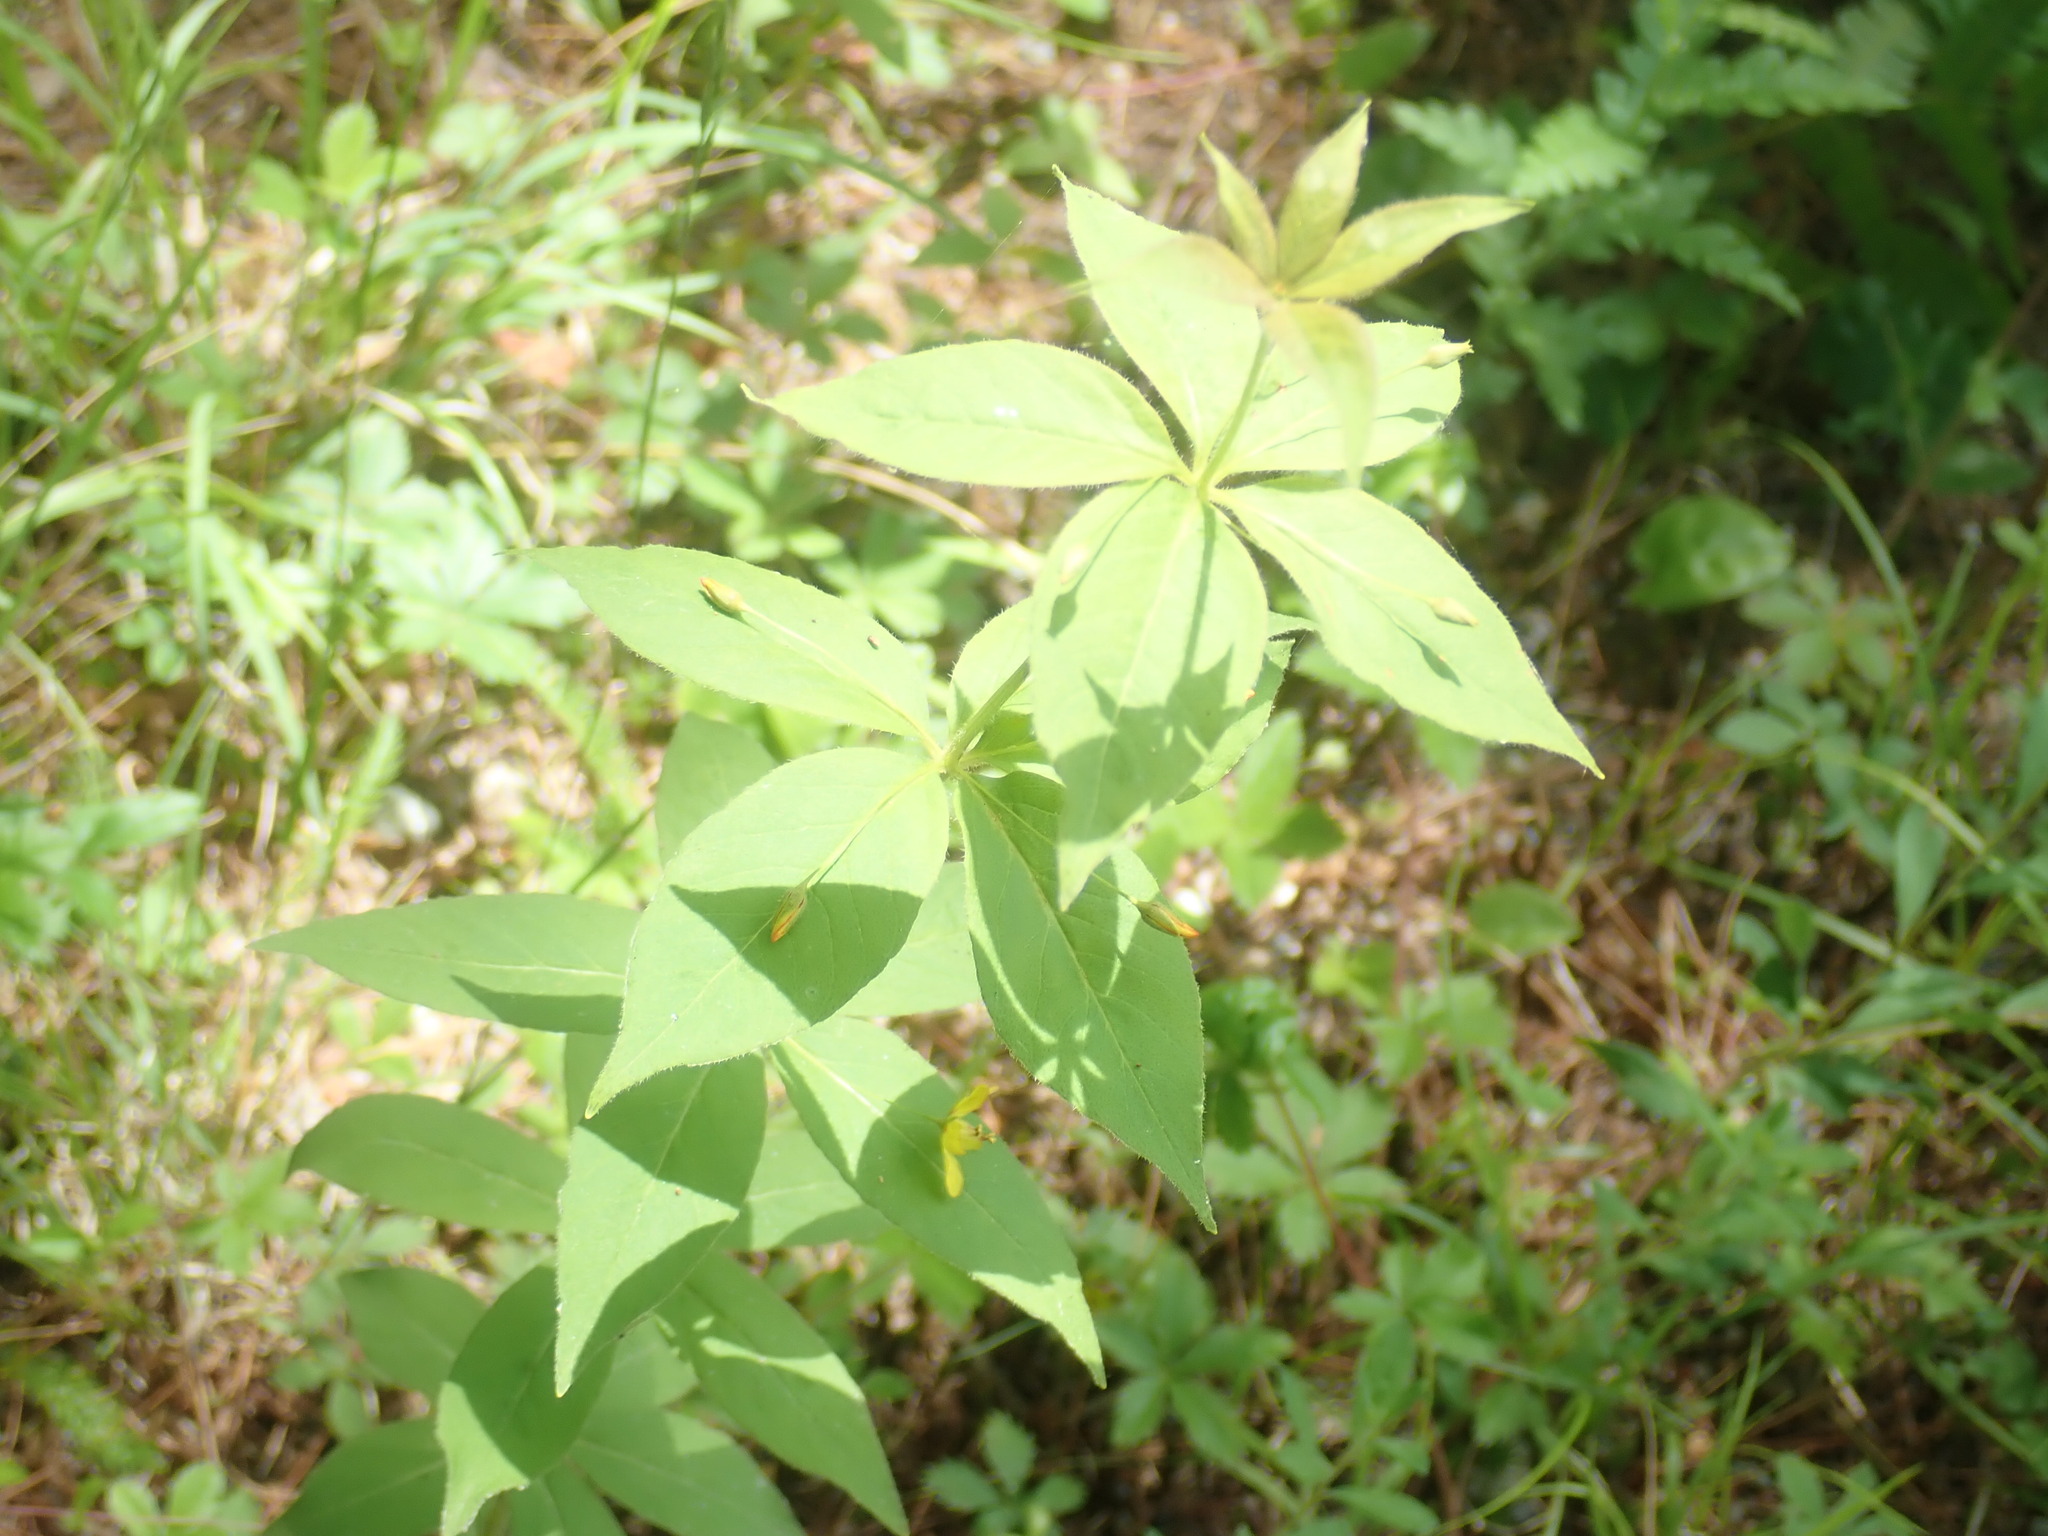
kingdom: Plantae
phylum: Tracheophyta
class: Magnoliopsida
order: Ericales
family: Primulaceae
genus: Lysimachia
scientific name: Lysimachia quadrifolia
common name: Whorled loosestrife
